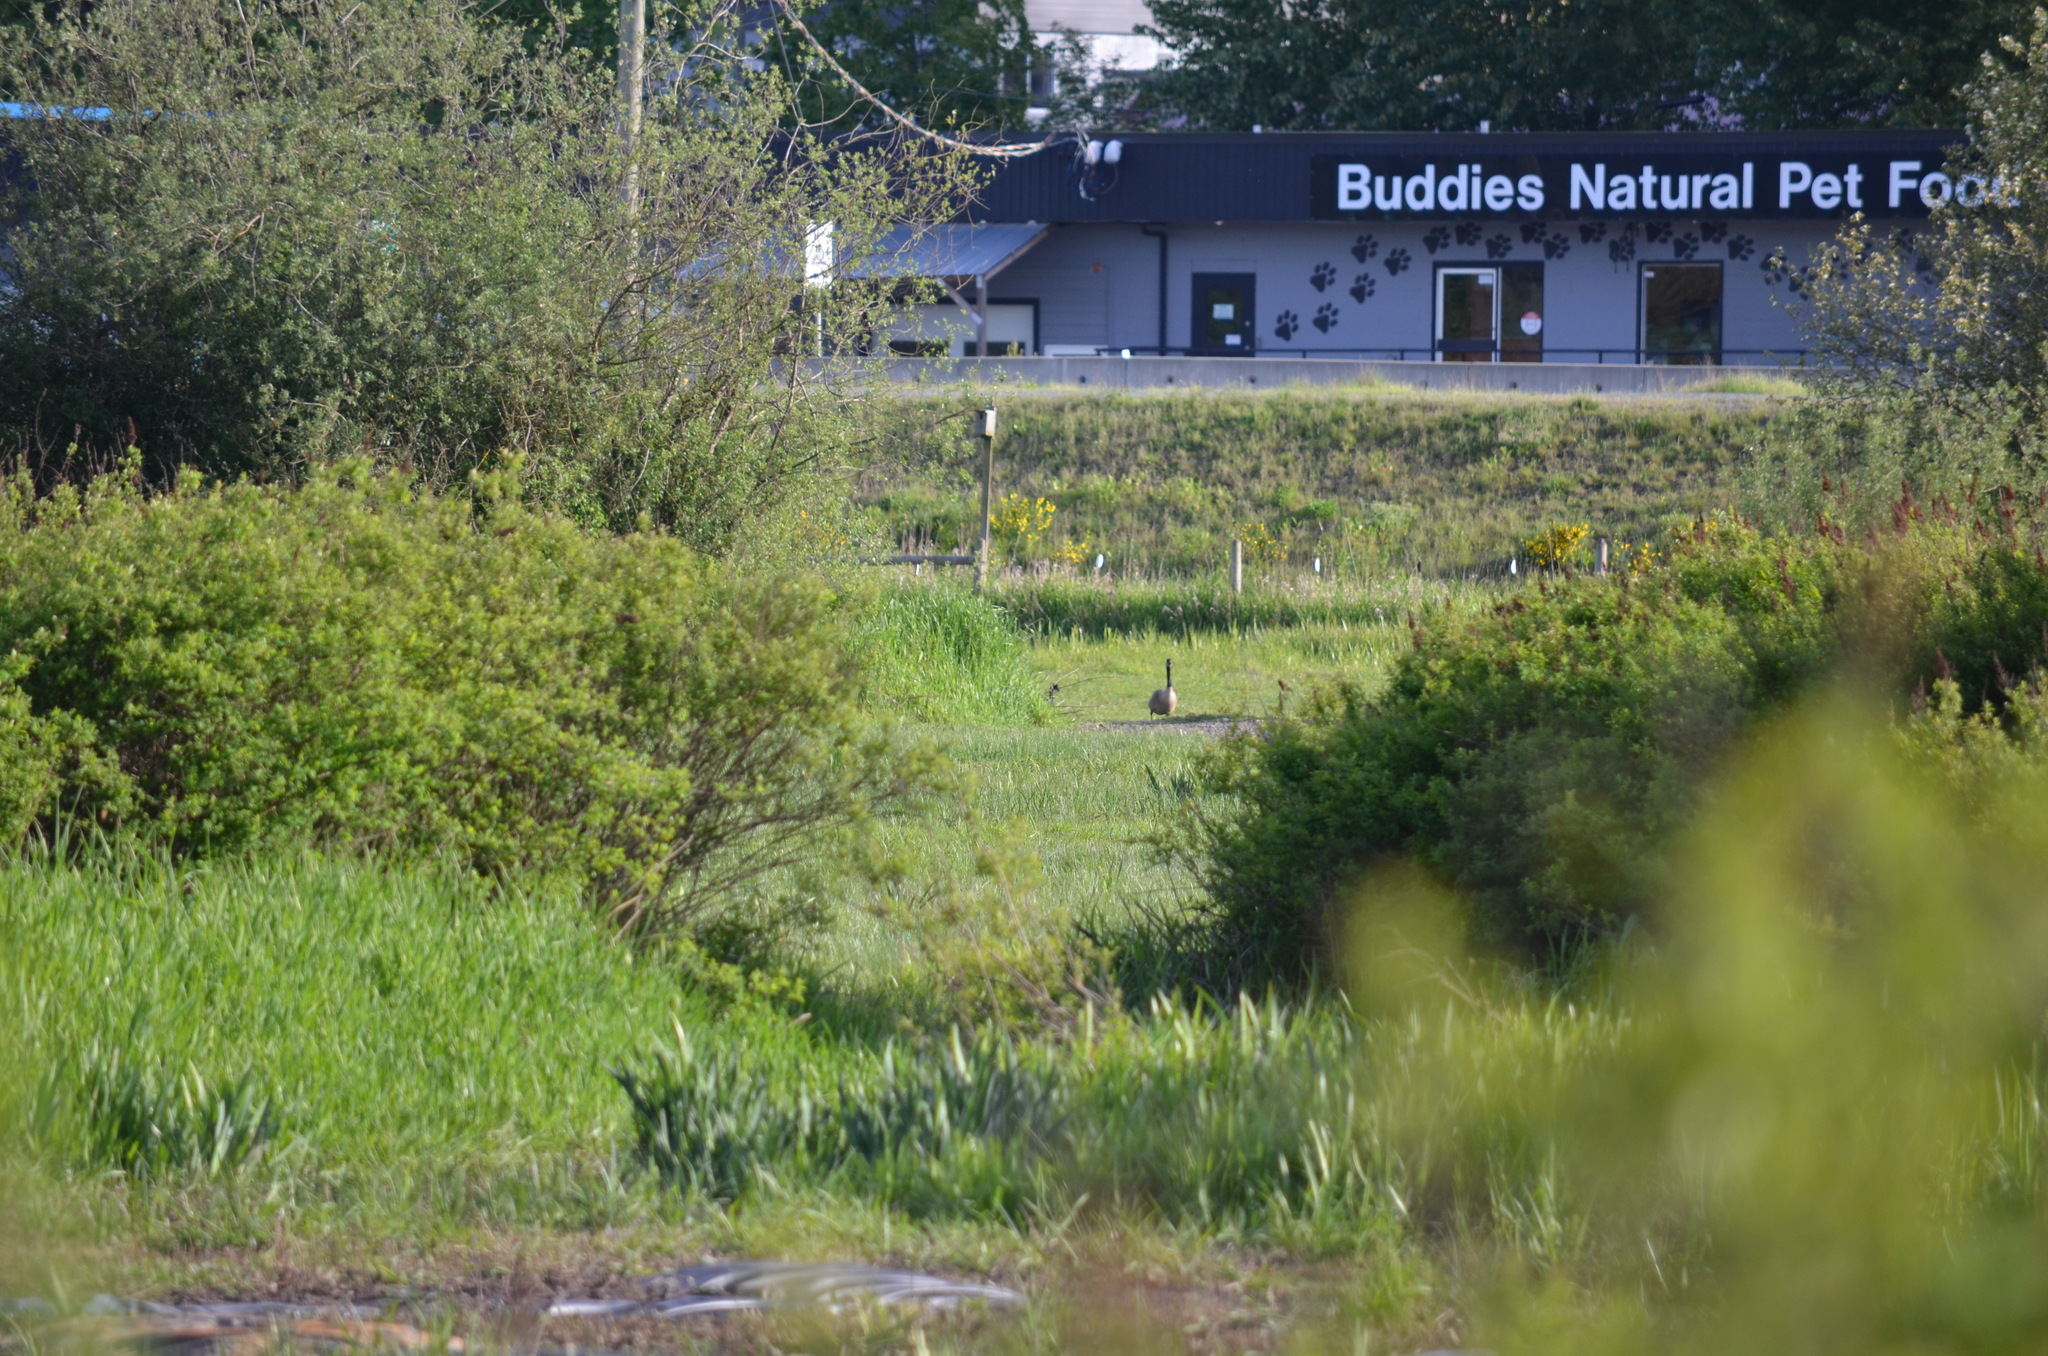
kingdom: Animalia
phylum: Chordata
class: Aves
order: Anseriformes
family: Anatidae
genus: Branta
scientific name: Branta canadensis
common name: Canada goose
